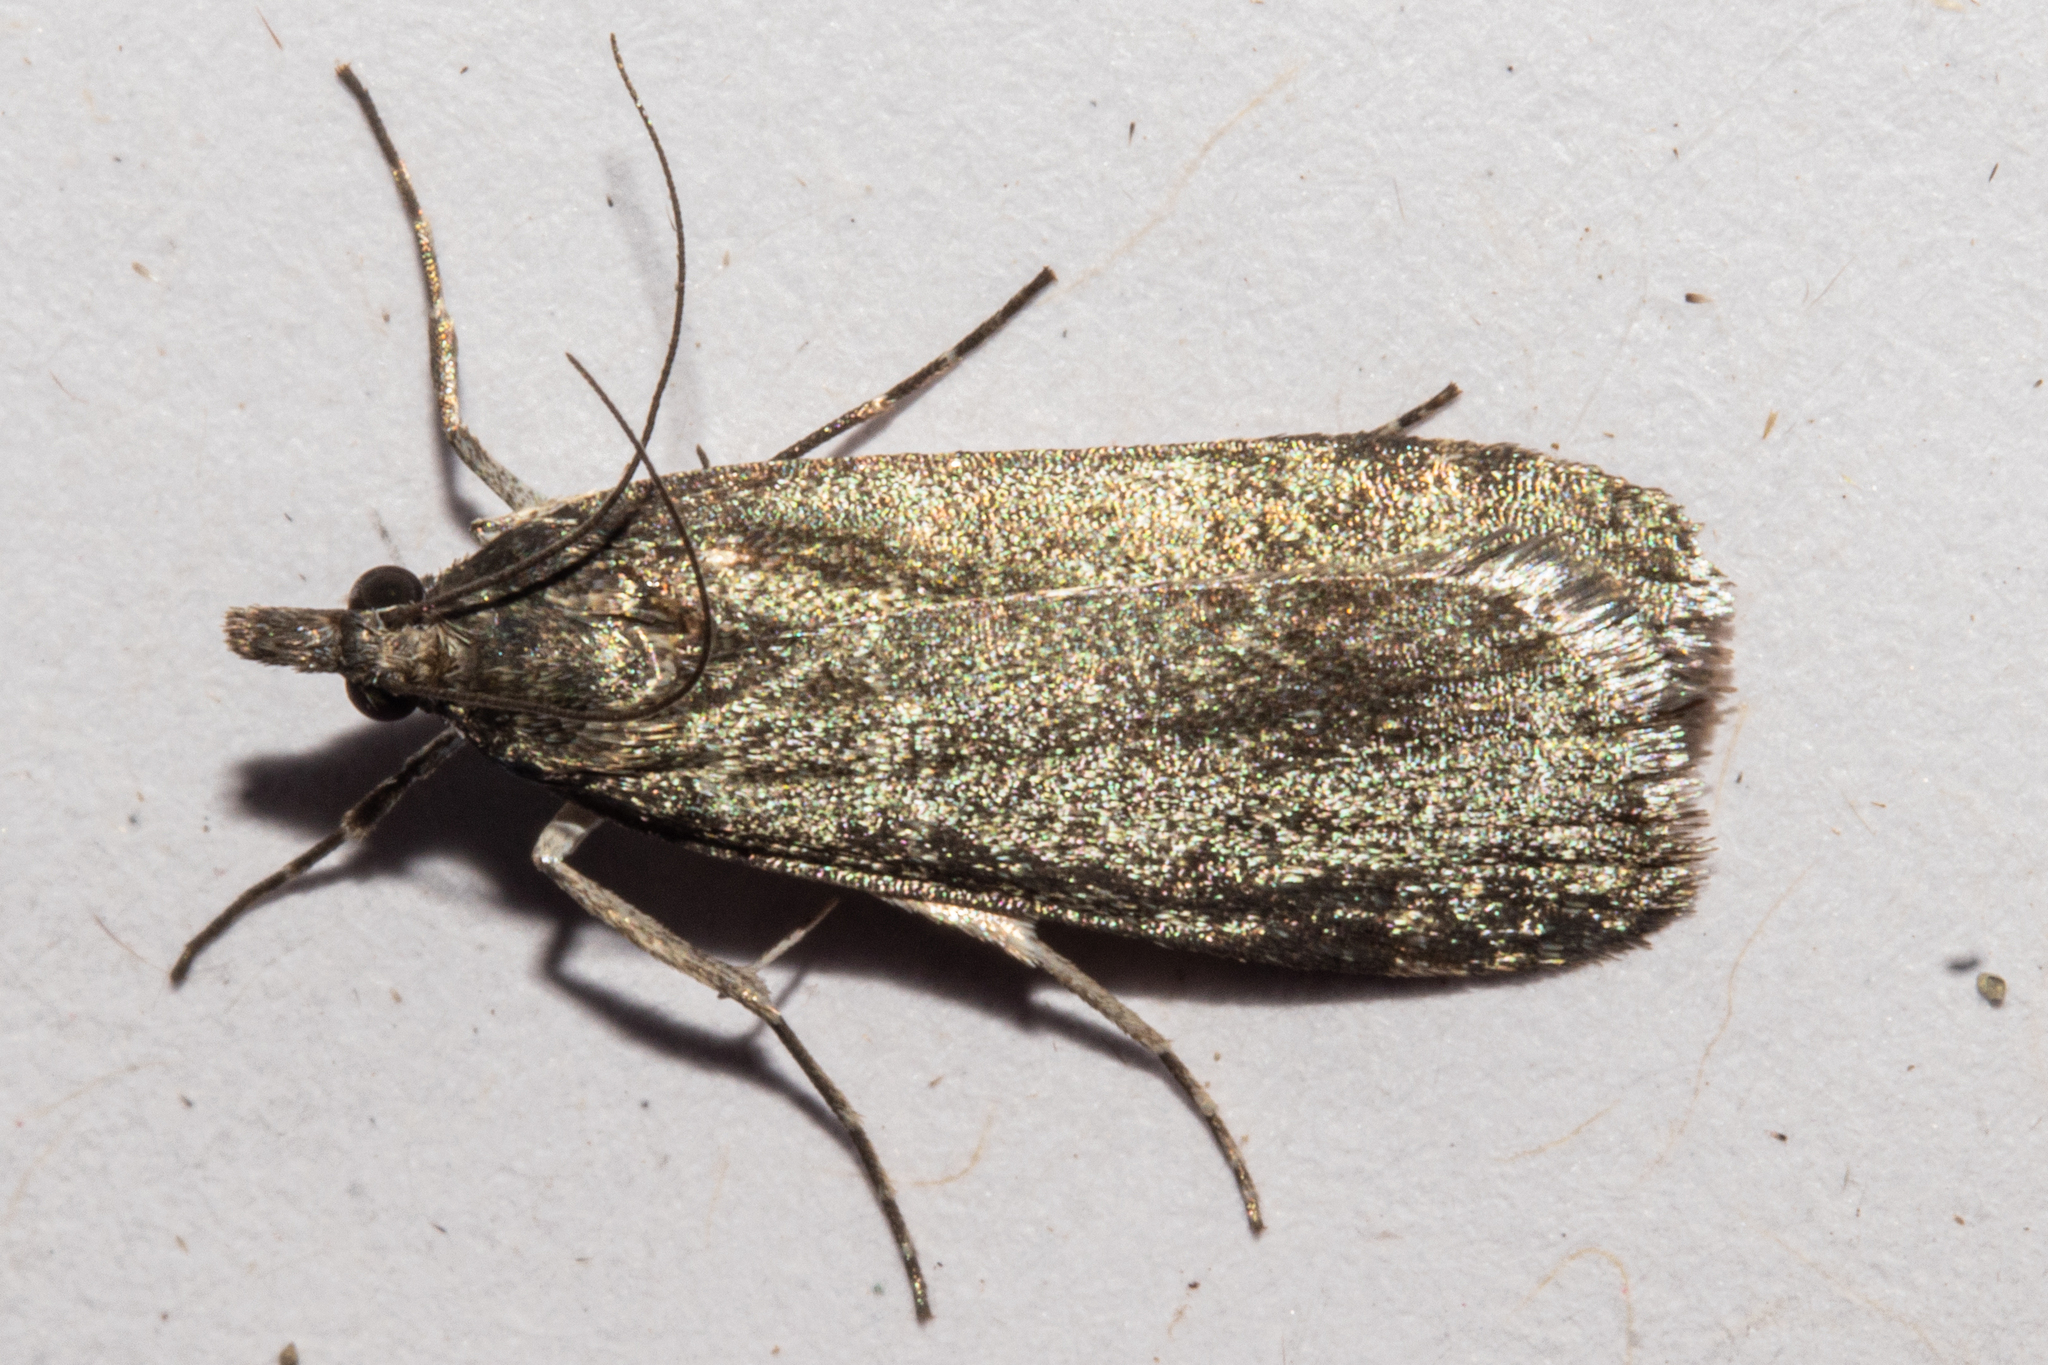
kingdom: Animalia
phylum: Arthropoda
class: Insecta
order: Lepidoptera
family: Crambidae
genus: Eudonia
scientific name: Eudonia cataxesta
